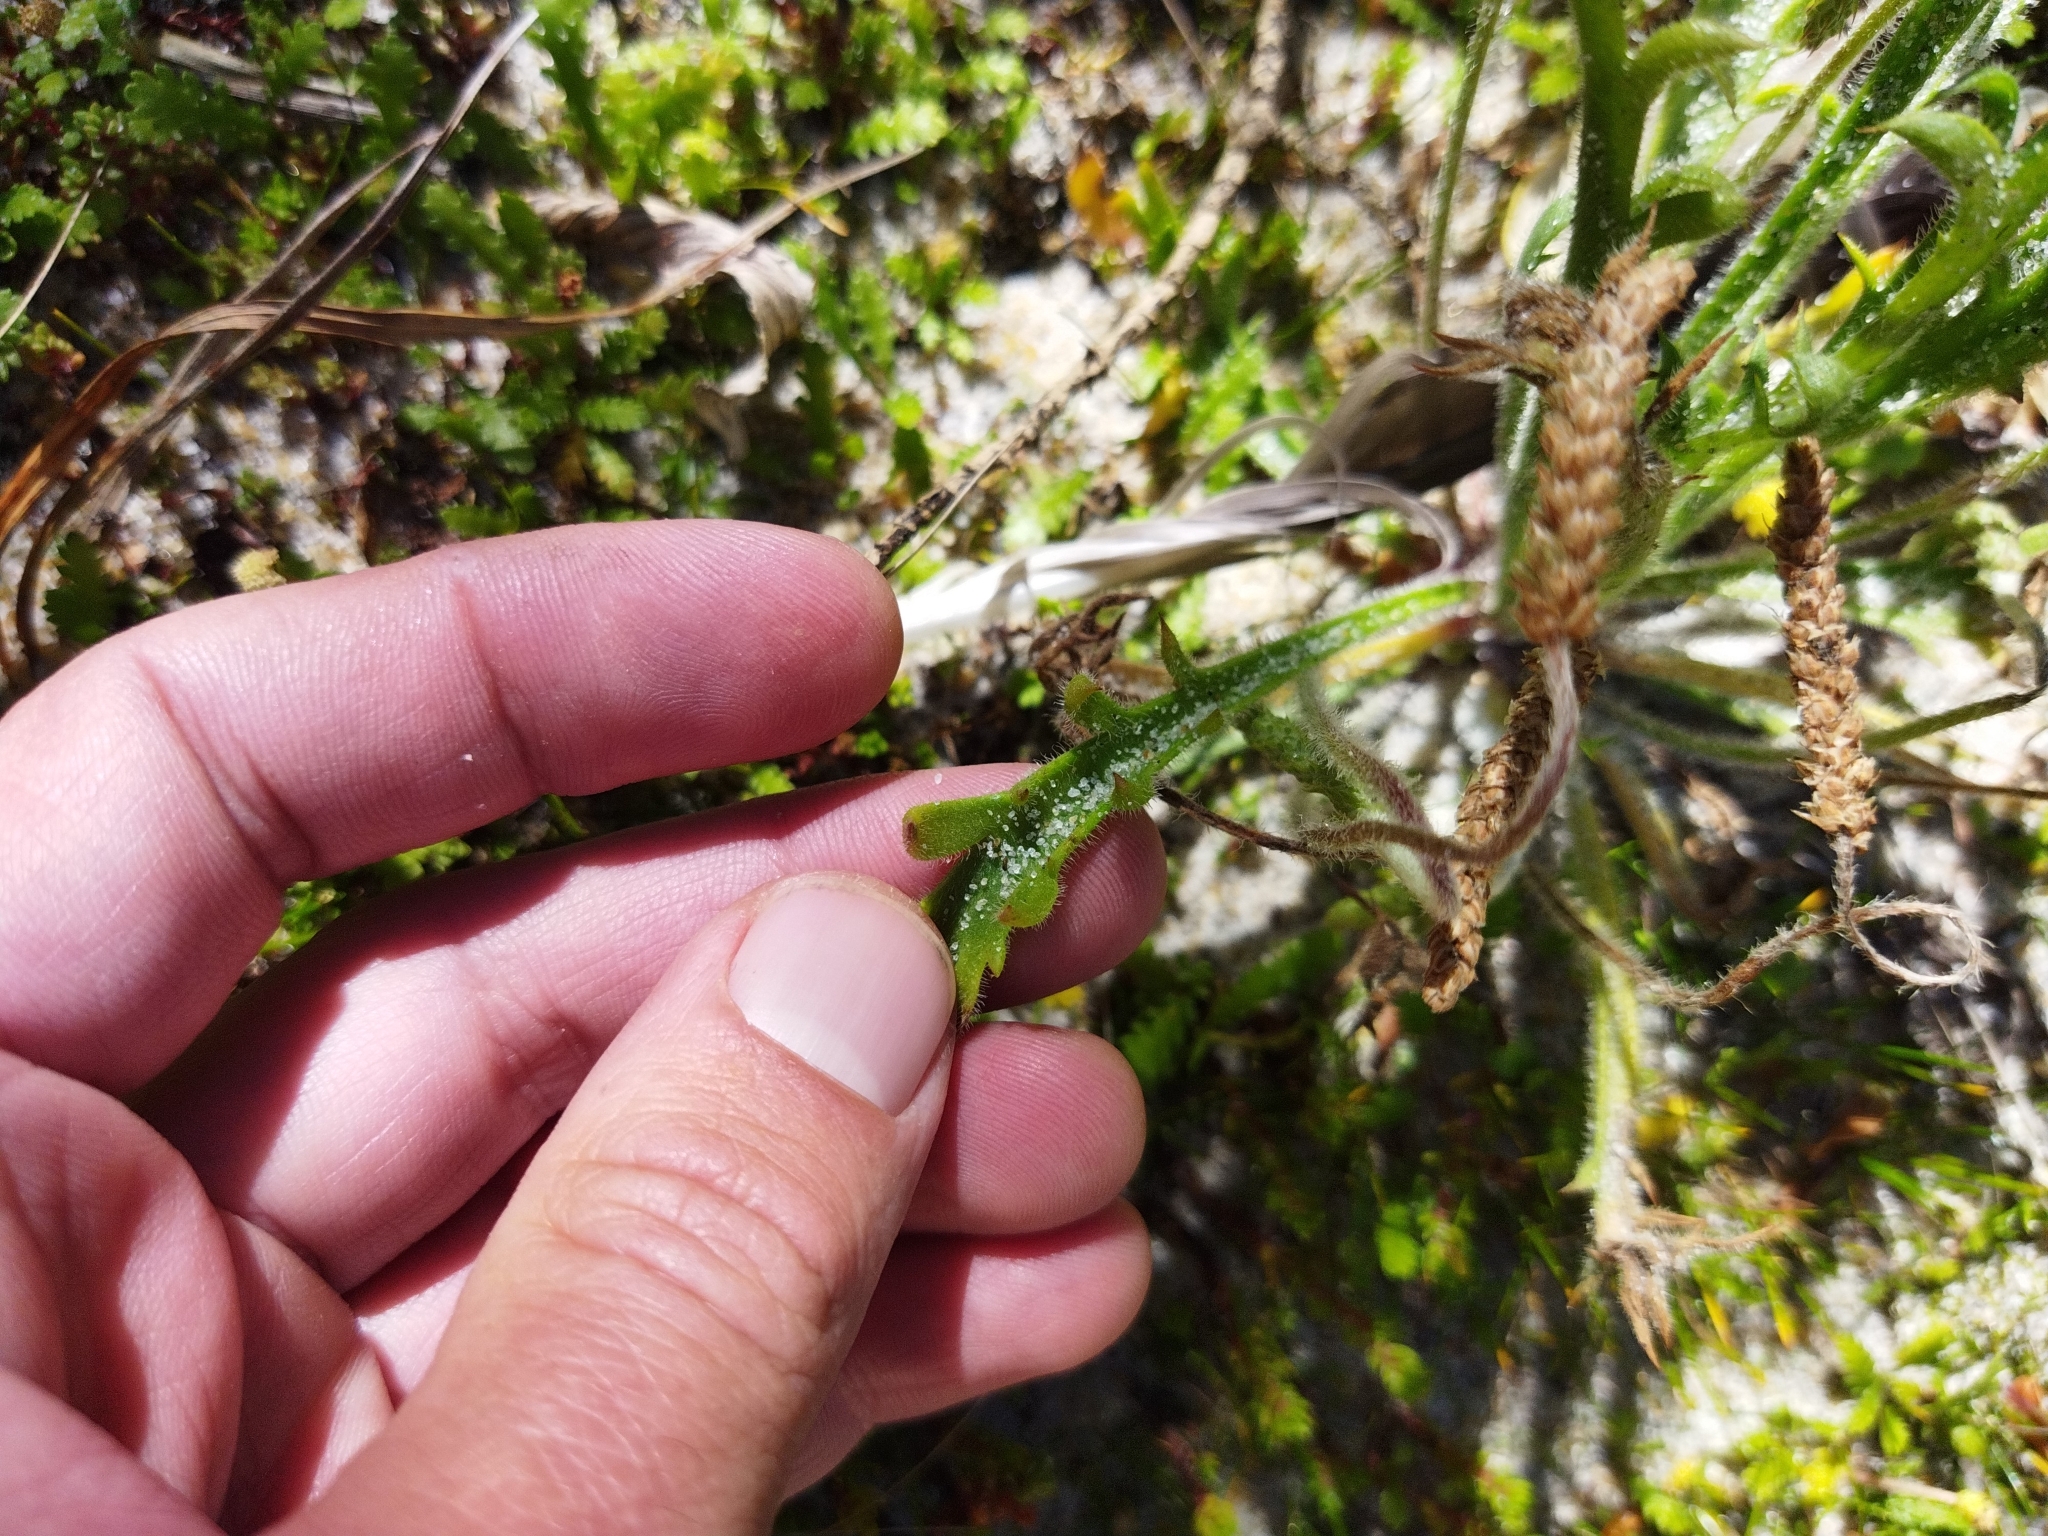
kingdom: Plantae
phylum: Tracheophyta
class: Magnoliopsida
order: Lamiales
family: Plantaginaceae
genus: Plantago
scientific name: Plantago coronopus
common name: Buck's-horn plantain
